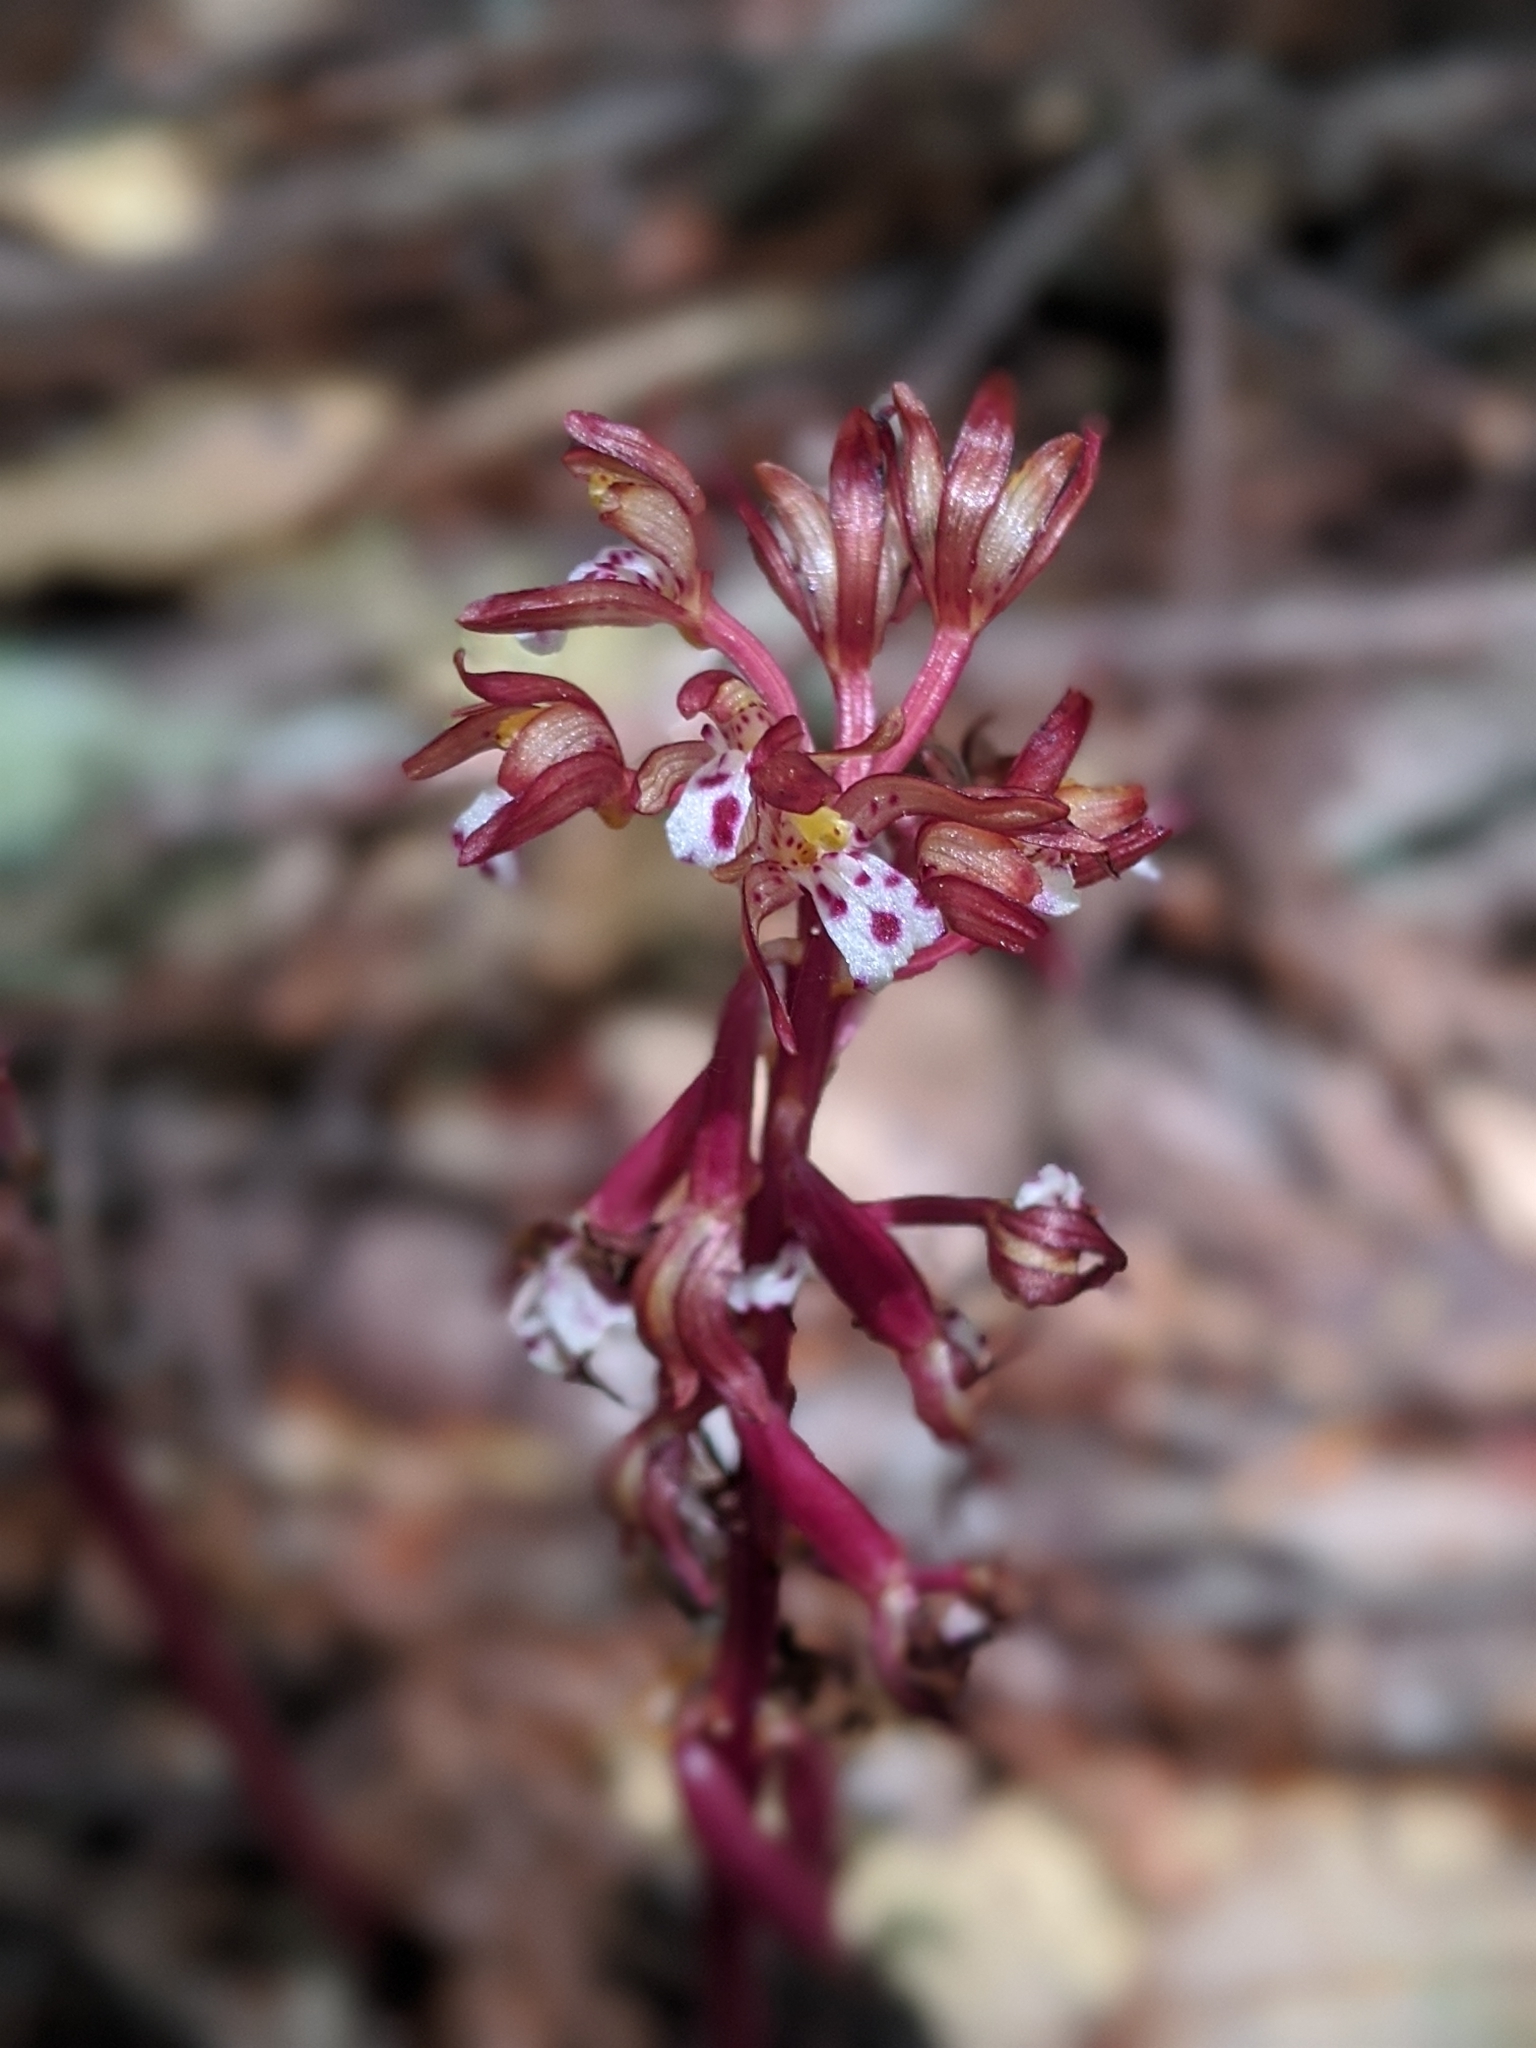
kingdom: Plantae
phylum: Tracheophyta
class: Liliopsida
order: Asparagales
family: Orchidaceae
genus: Corallorhiza
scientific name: Corallorhiza maculata
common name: Spotted coralroot
